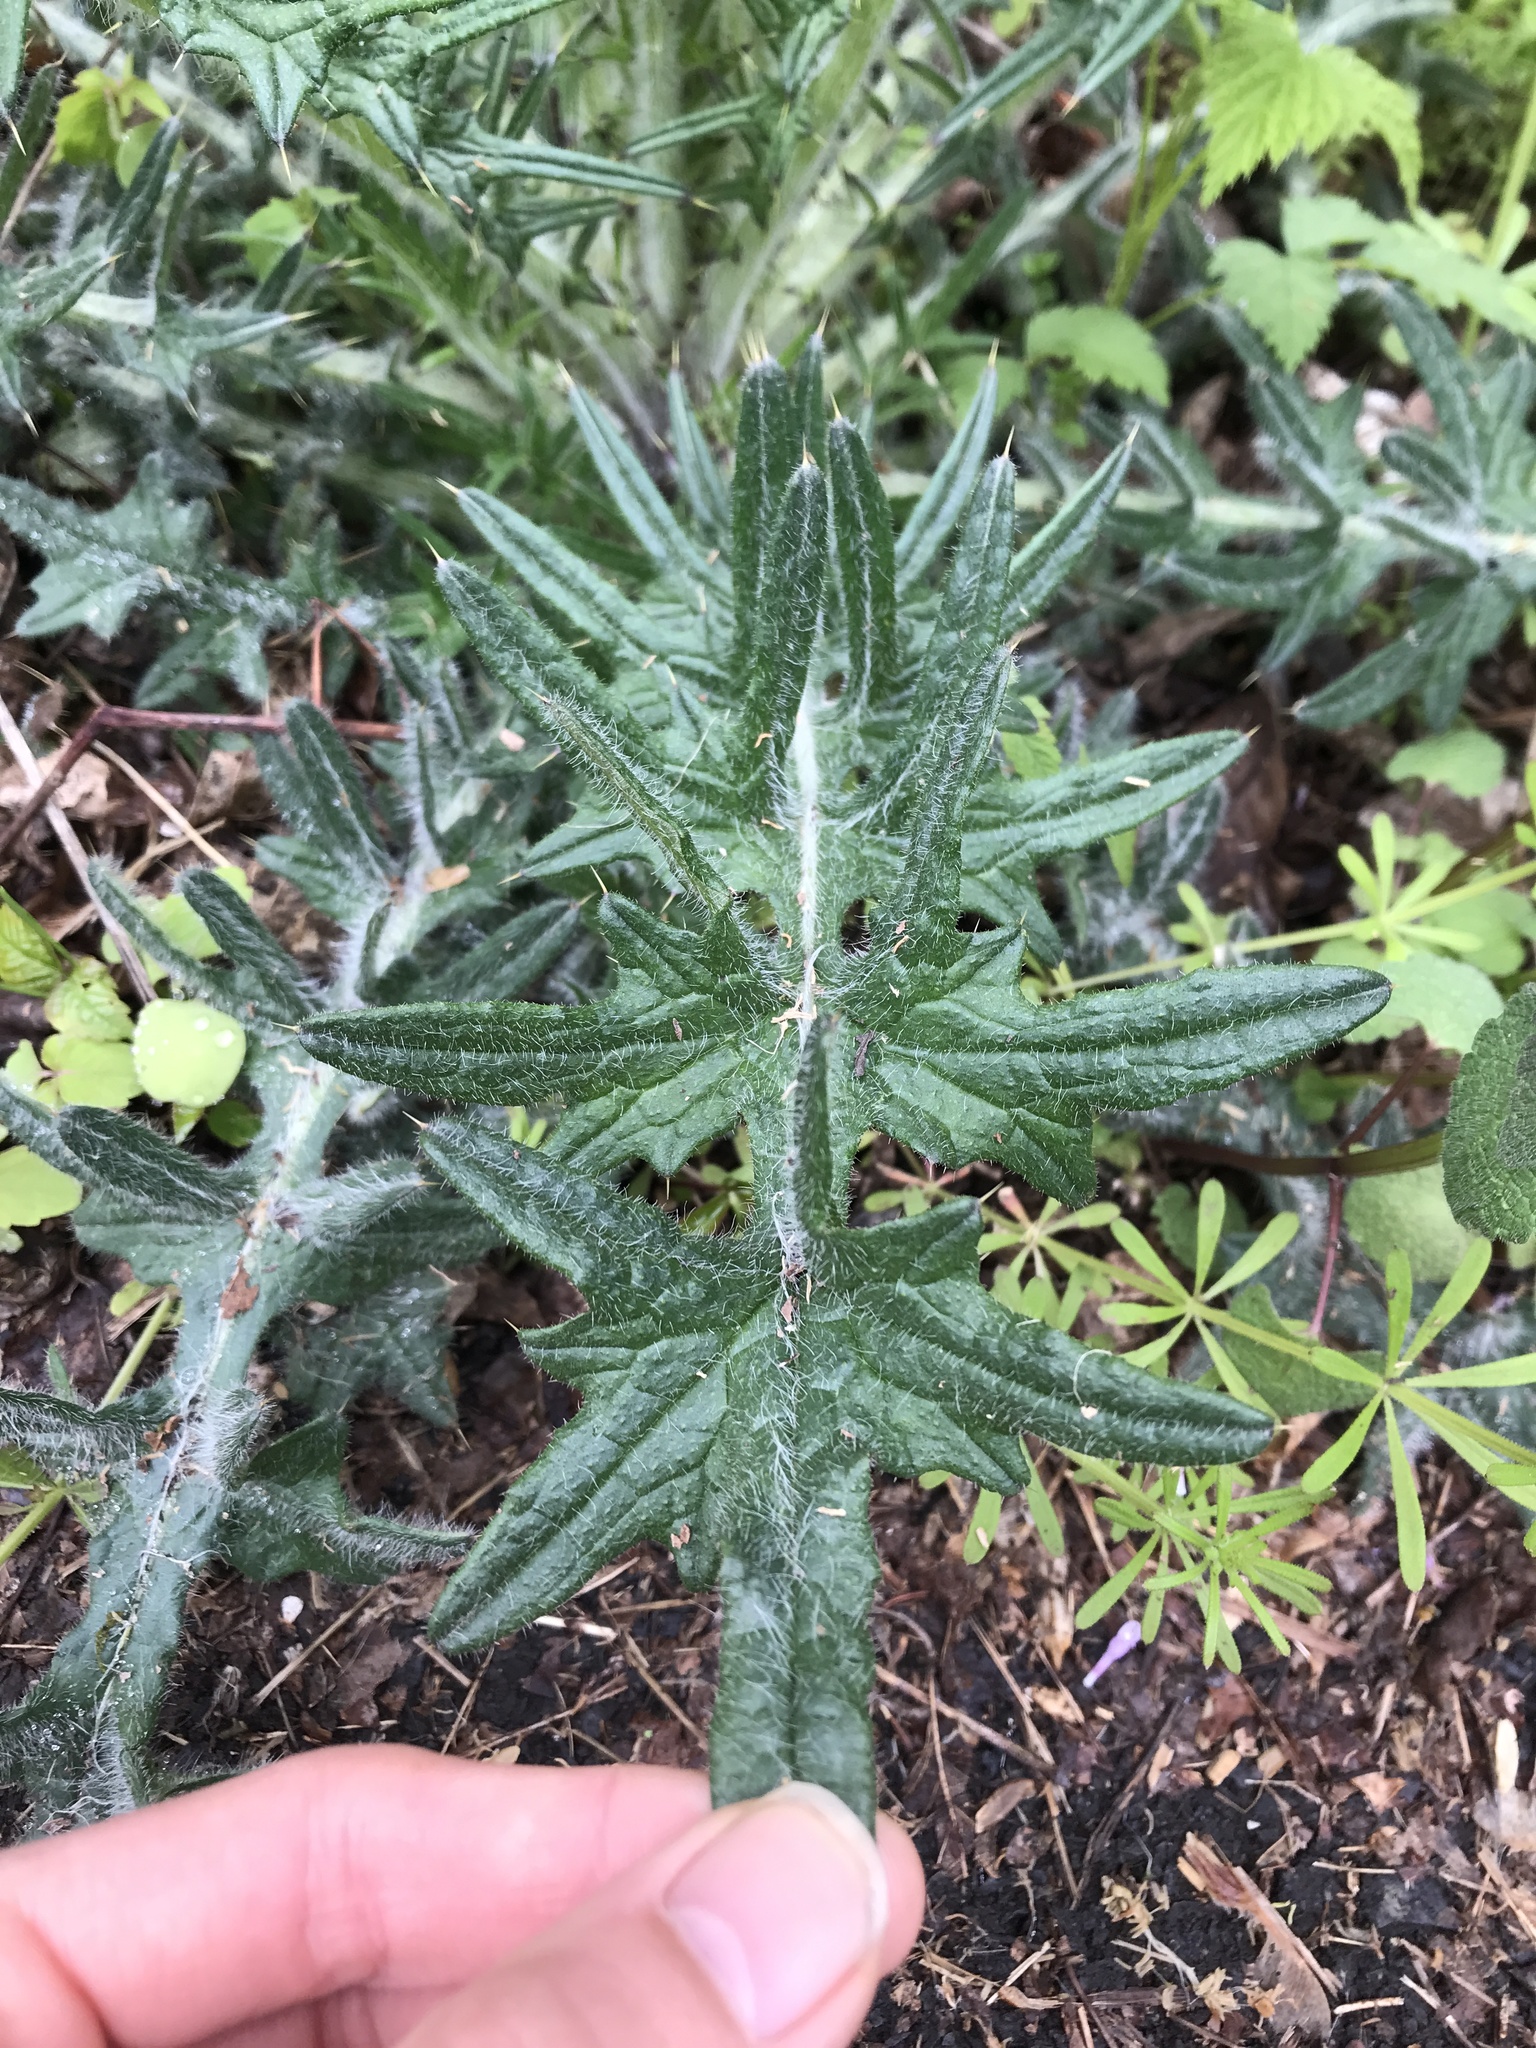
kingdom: Plantae
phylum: Tracheophyta
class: Magnoliopsida
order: Asterales
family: Asteraceae
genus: Cirsium
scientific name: Cirsium vulgare
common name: Bull thistle
